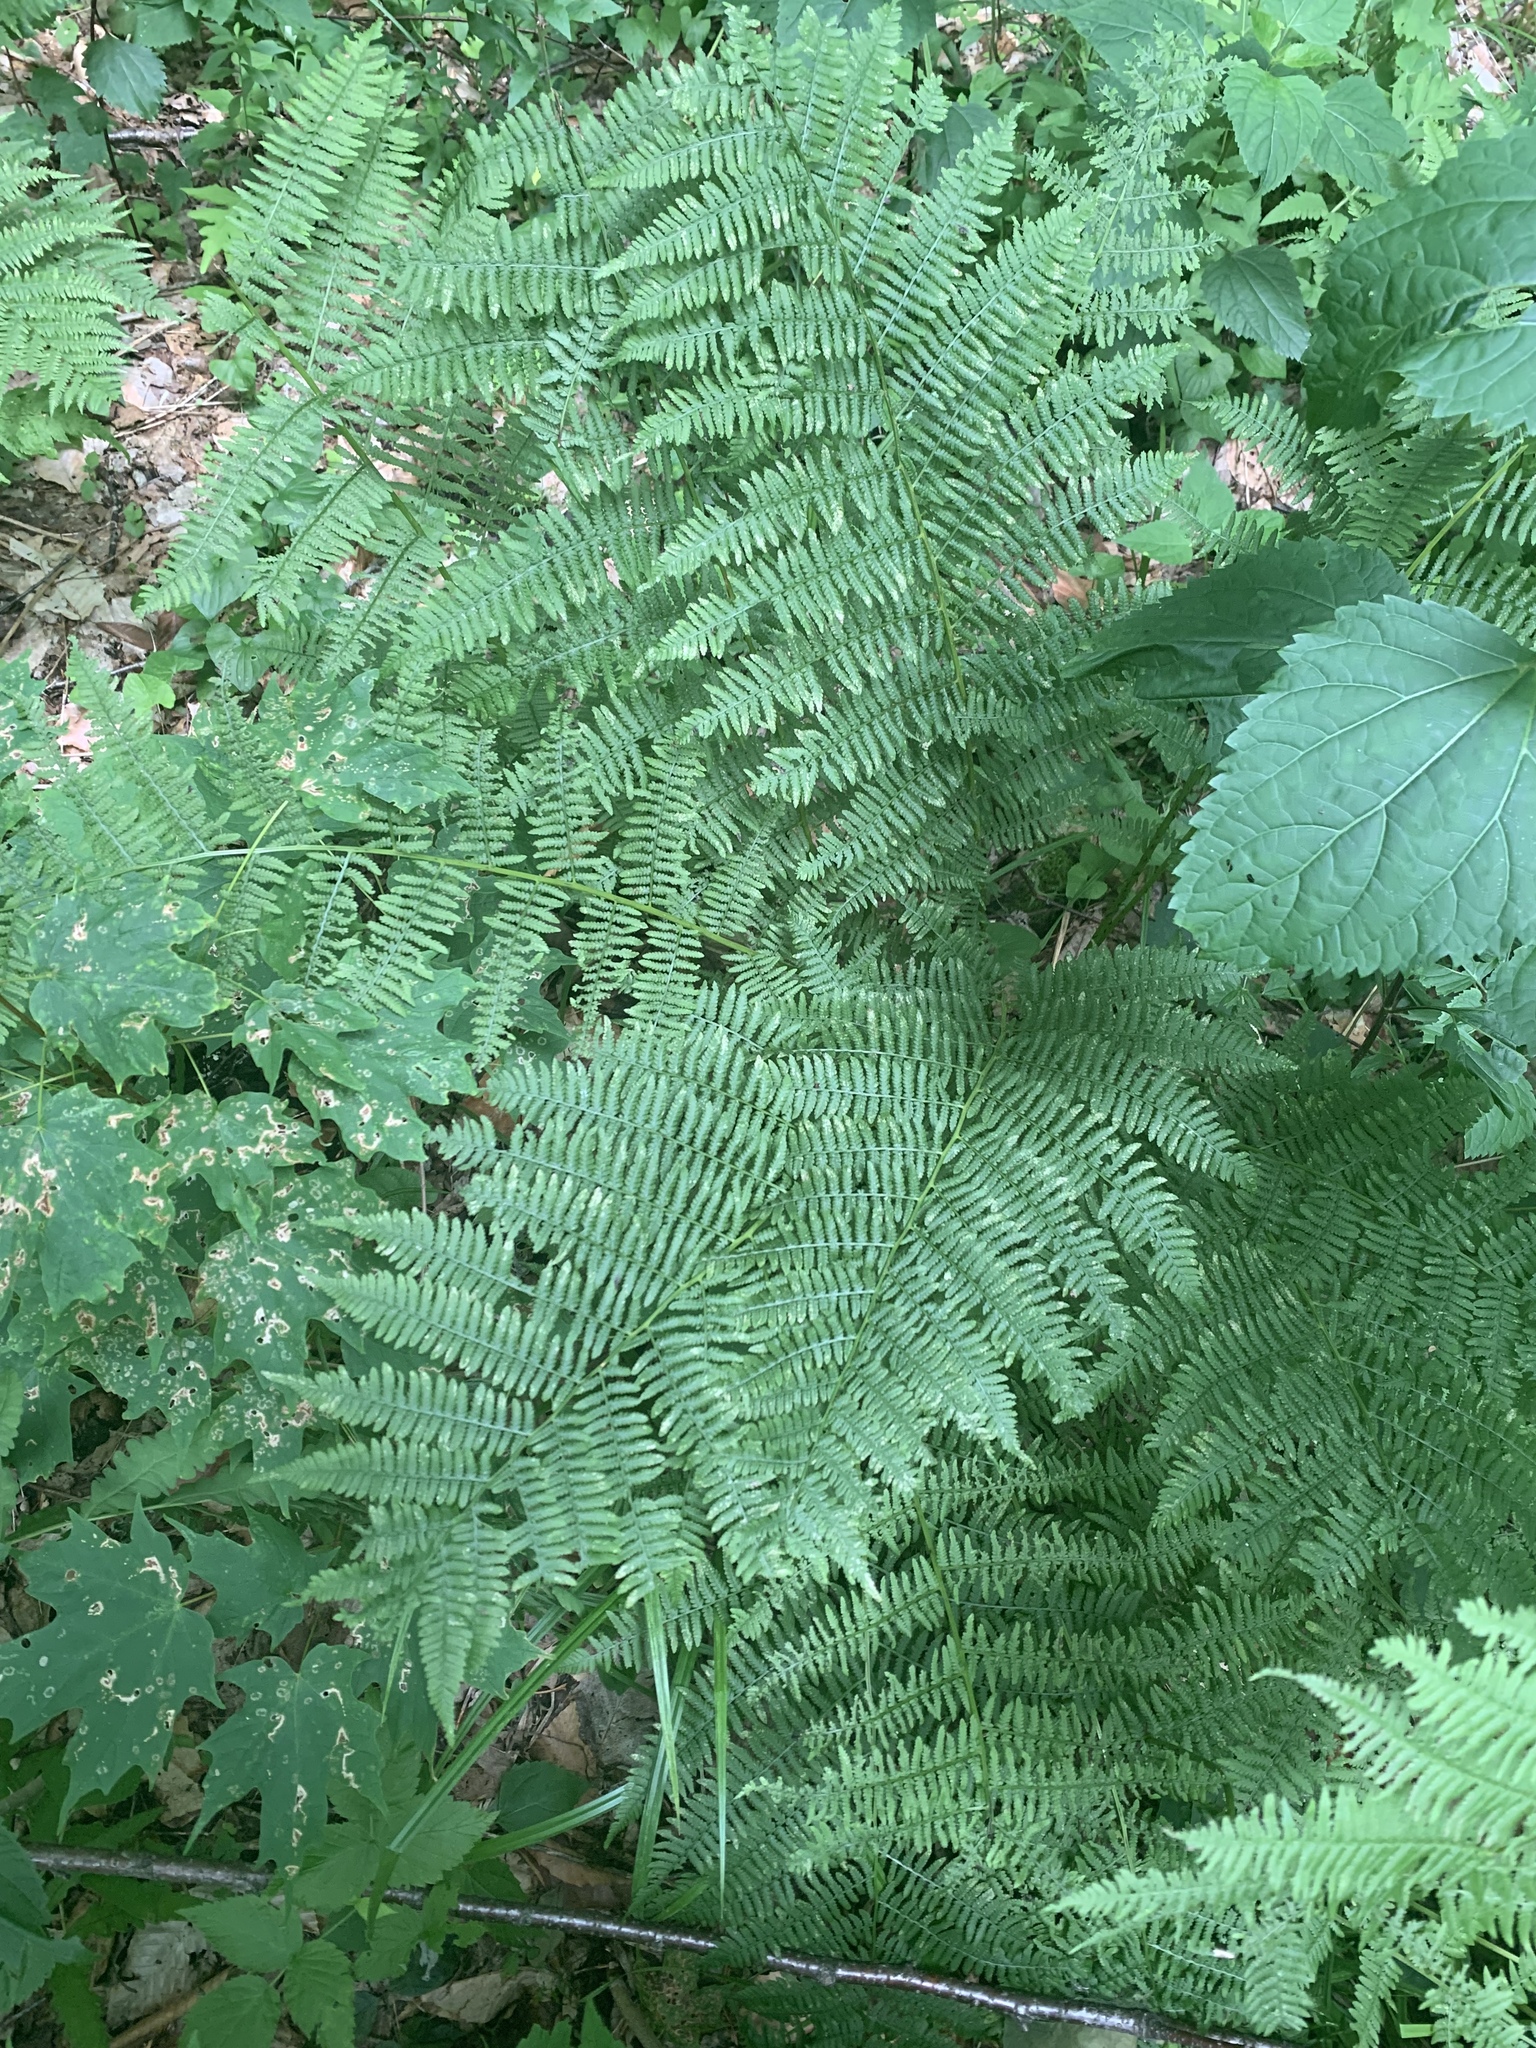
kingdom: Plantae
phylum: Tracheophyta
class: Polypodiopsida
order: Polypodiales
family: Athyriaceae
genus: Athyrium
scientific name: Athyrium angustum
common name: Northern lady fern
